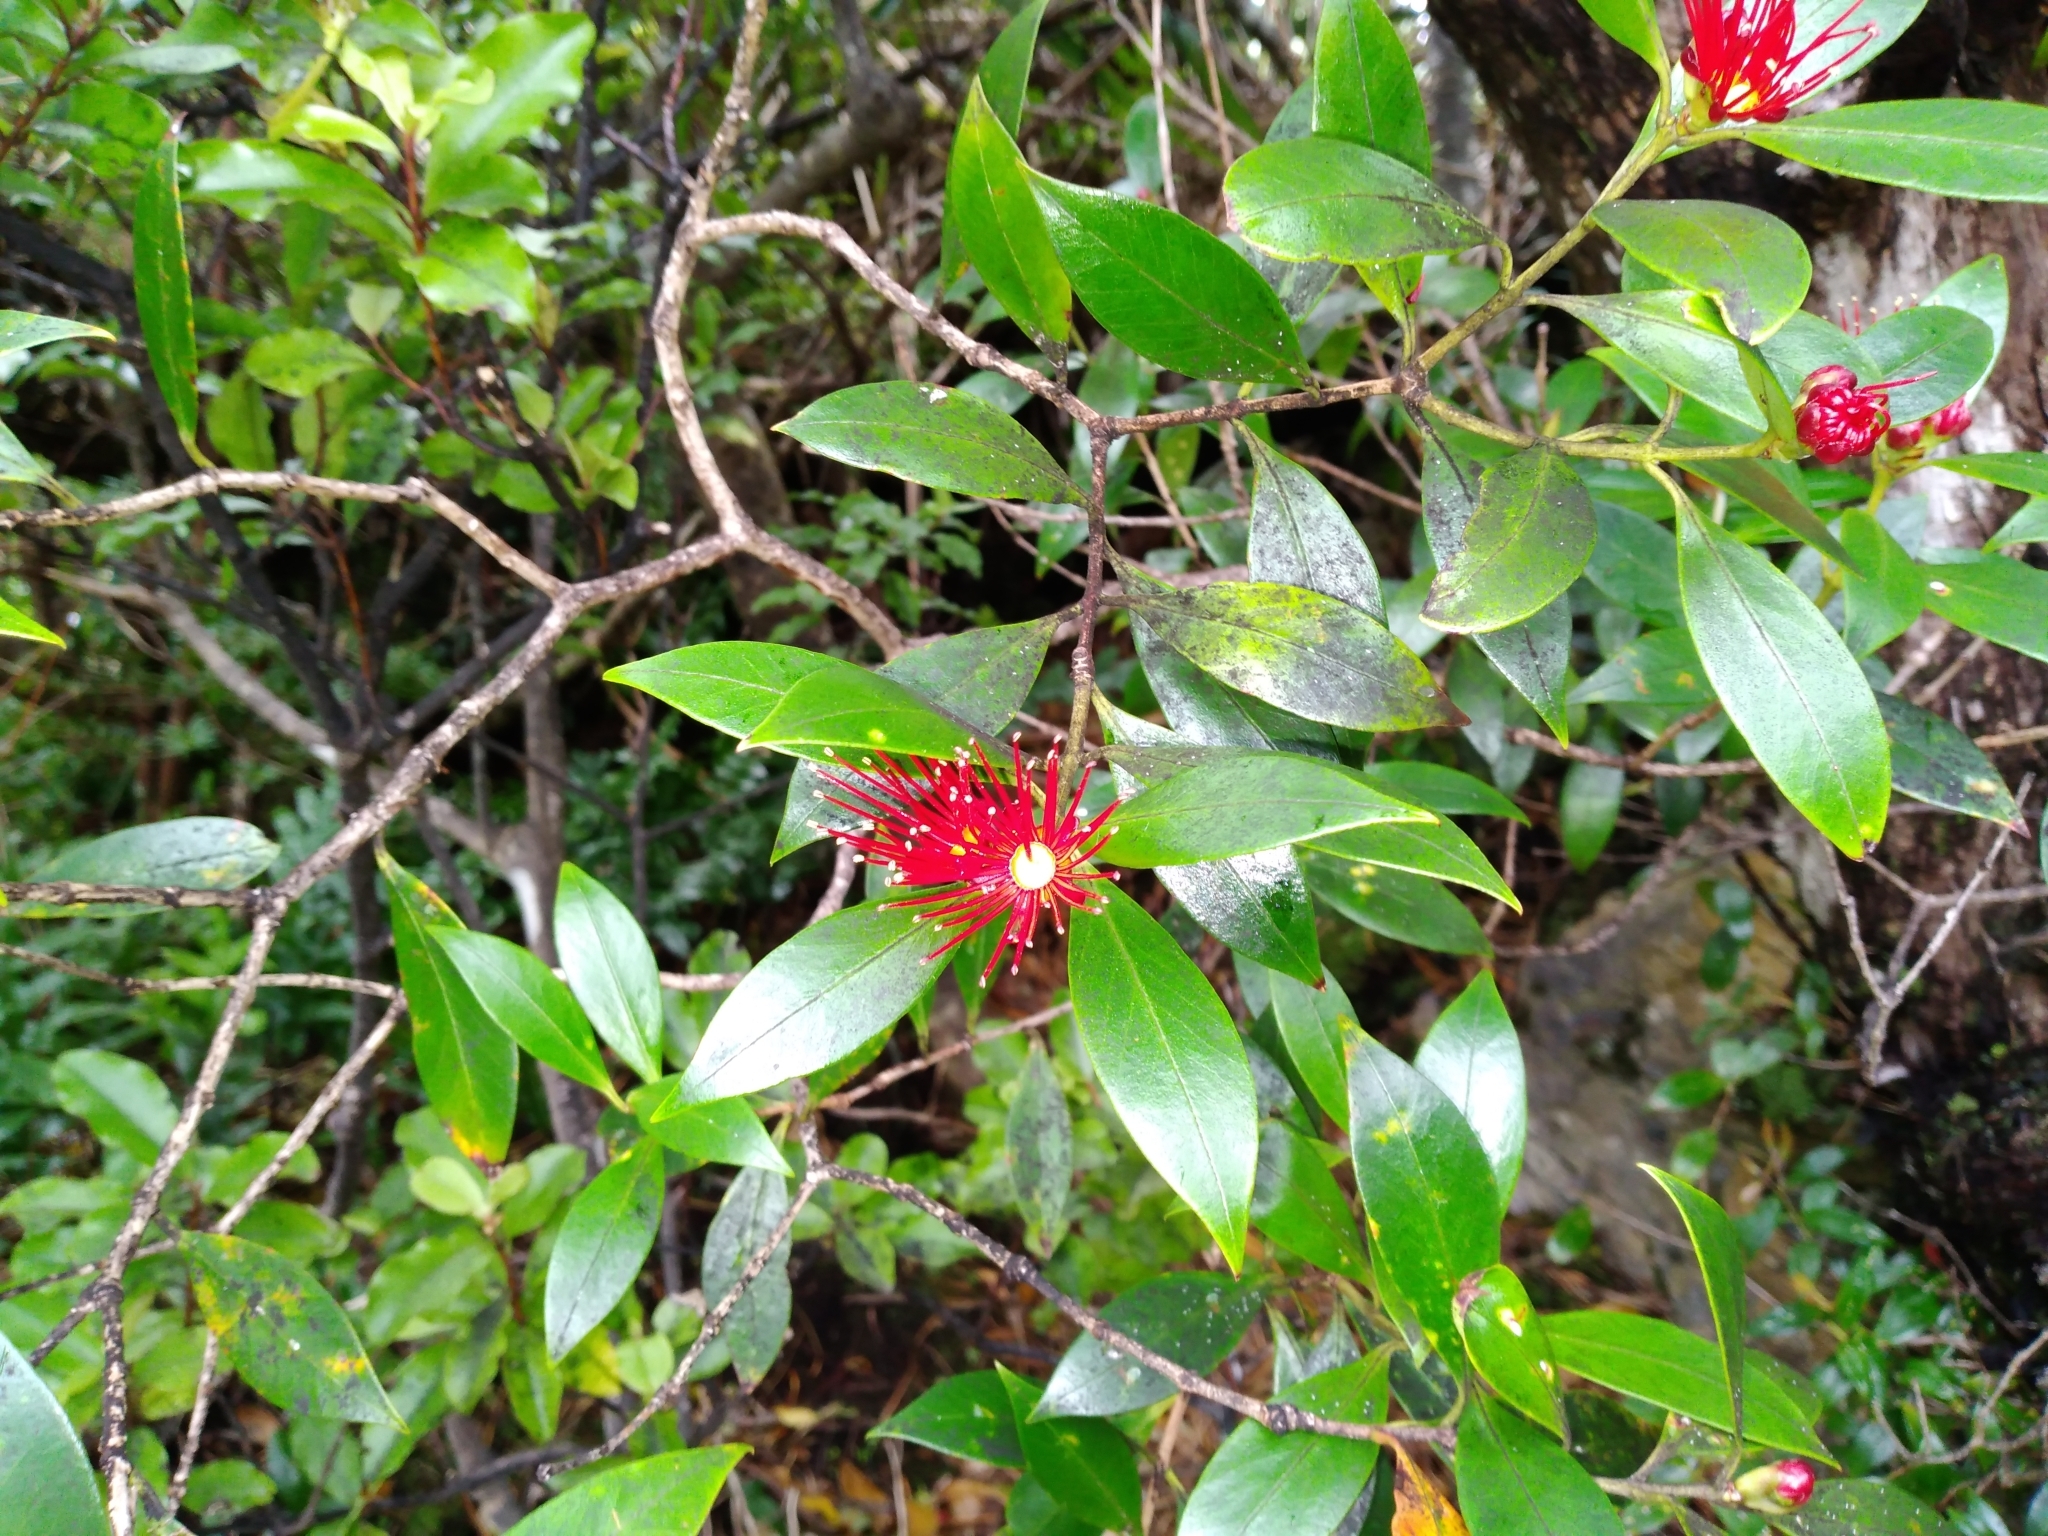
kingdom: Plantae
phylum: Tracheophyta
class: Magnoliopsida
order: Myrtales
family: Myrtaceae
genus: Metrosideros
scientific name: Metrosideros umbellata
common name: Southern rata
